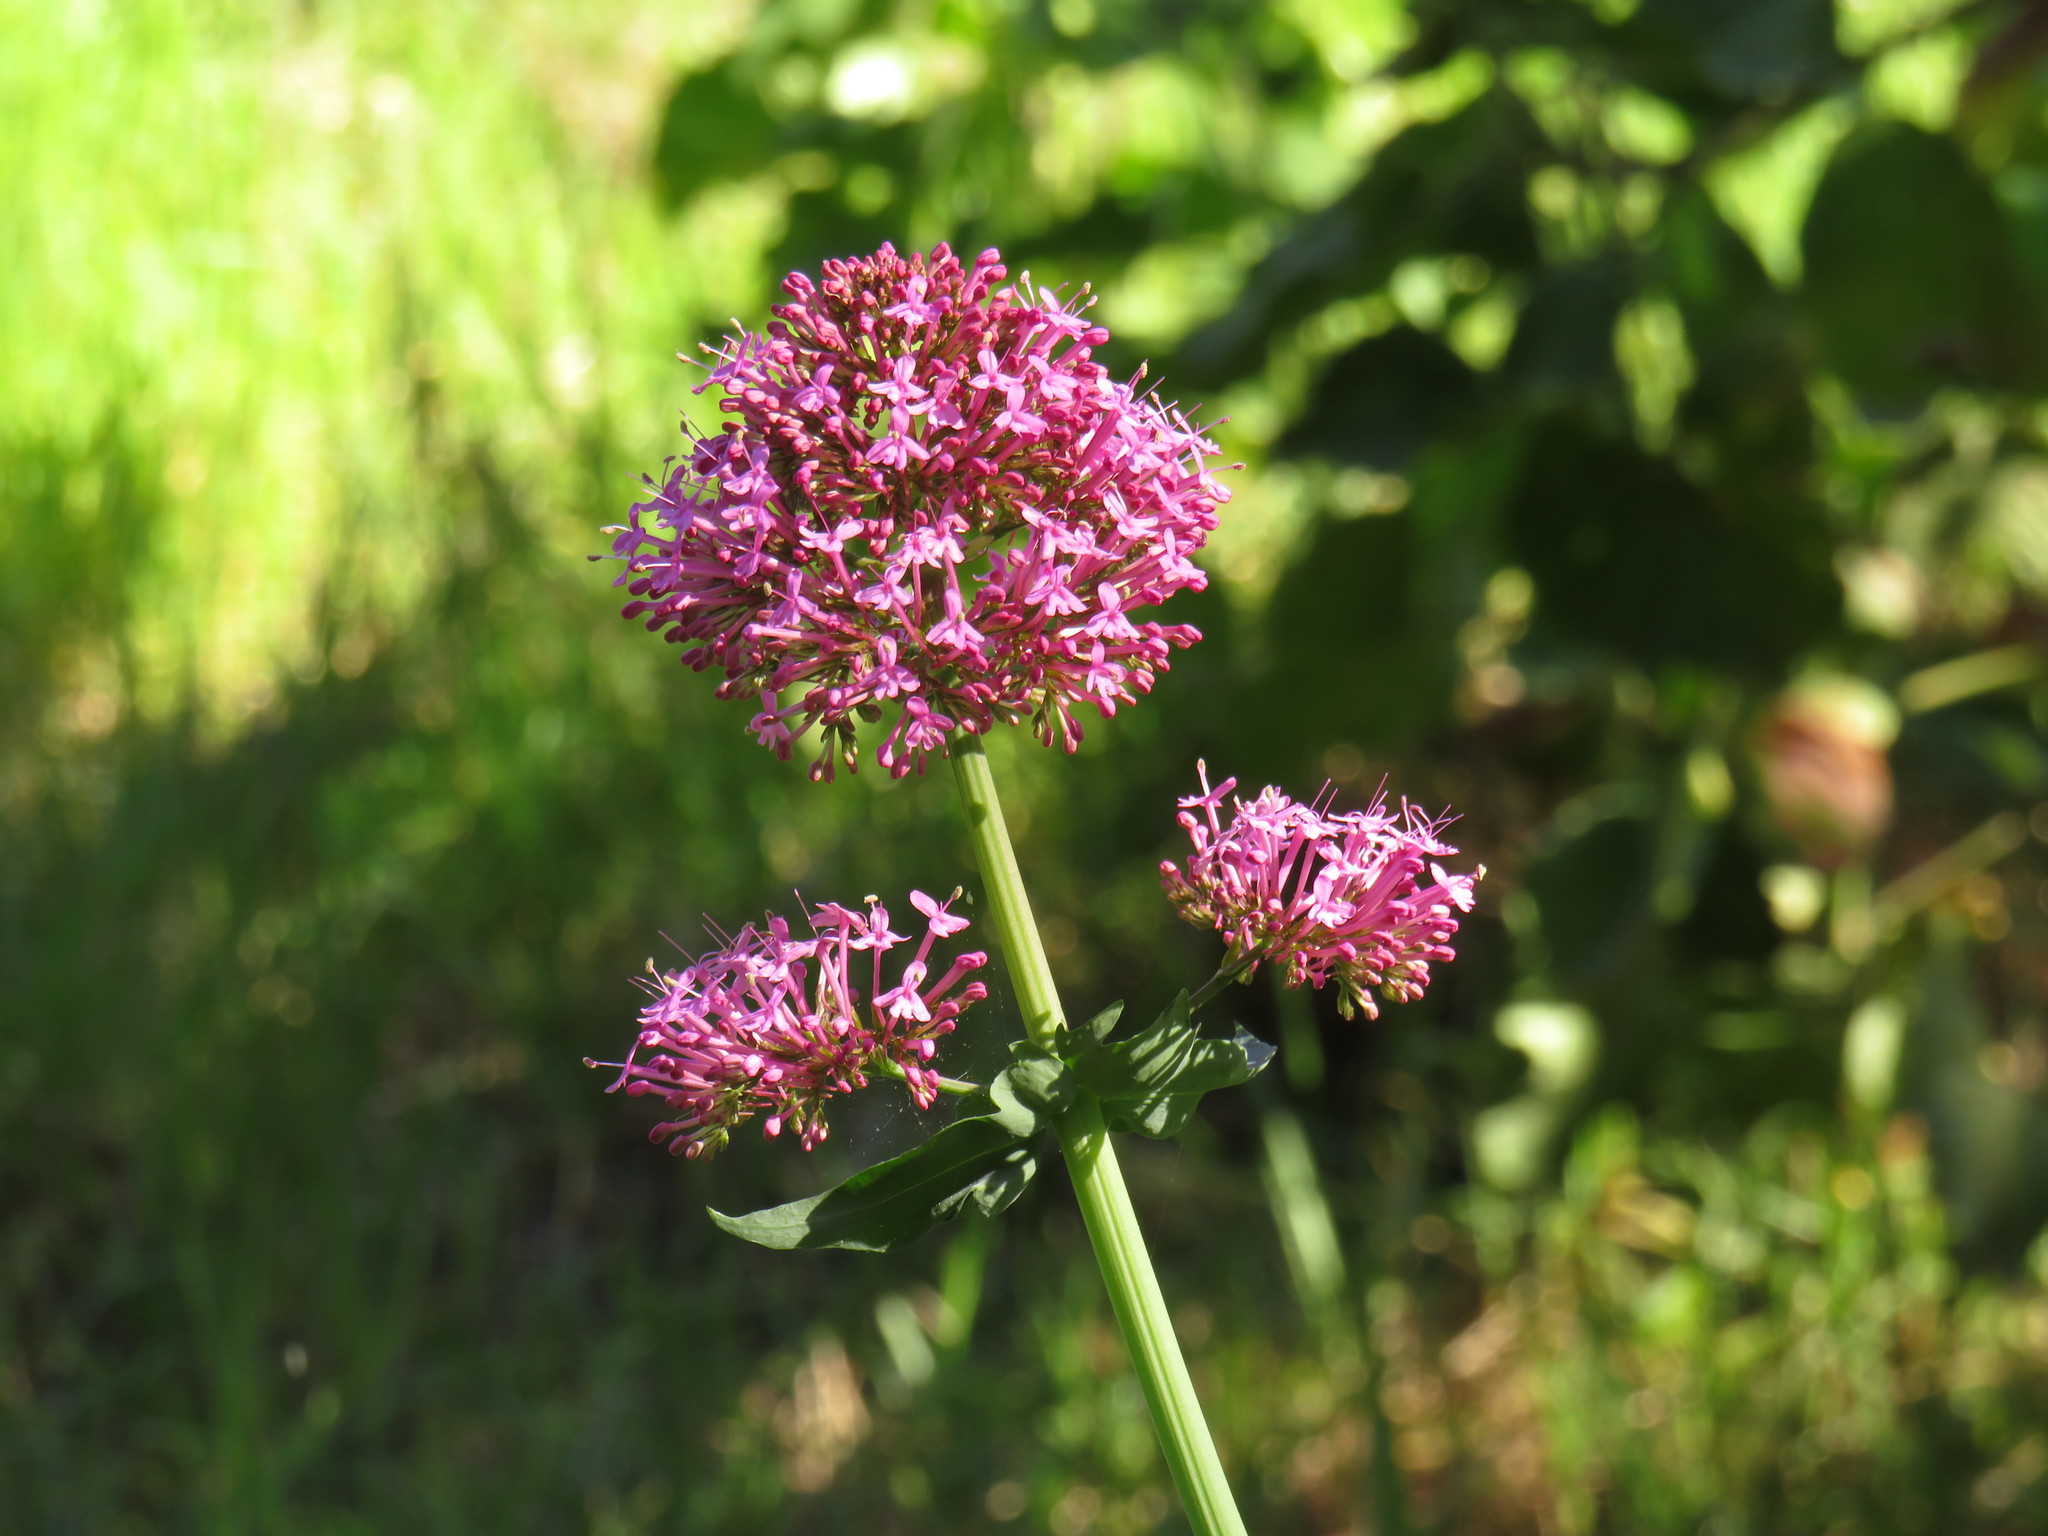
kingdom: Plantae
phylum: Tracheophyta
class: Magnoliopsida
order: Dipsacales
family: Caprifoliaceae
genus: Centranthus
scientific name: Centranthus ruber
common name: Red valerian
